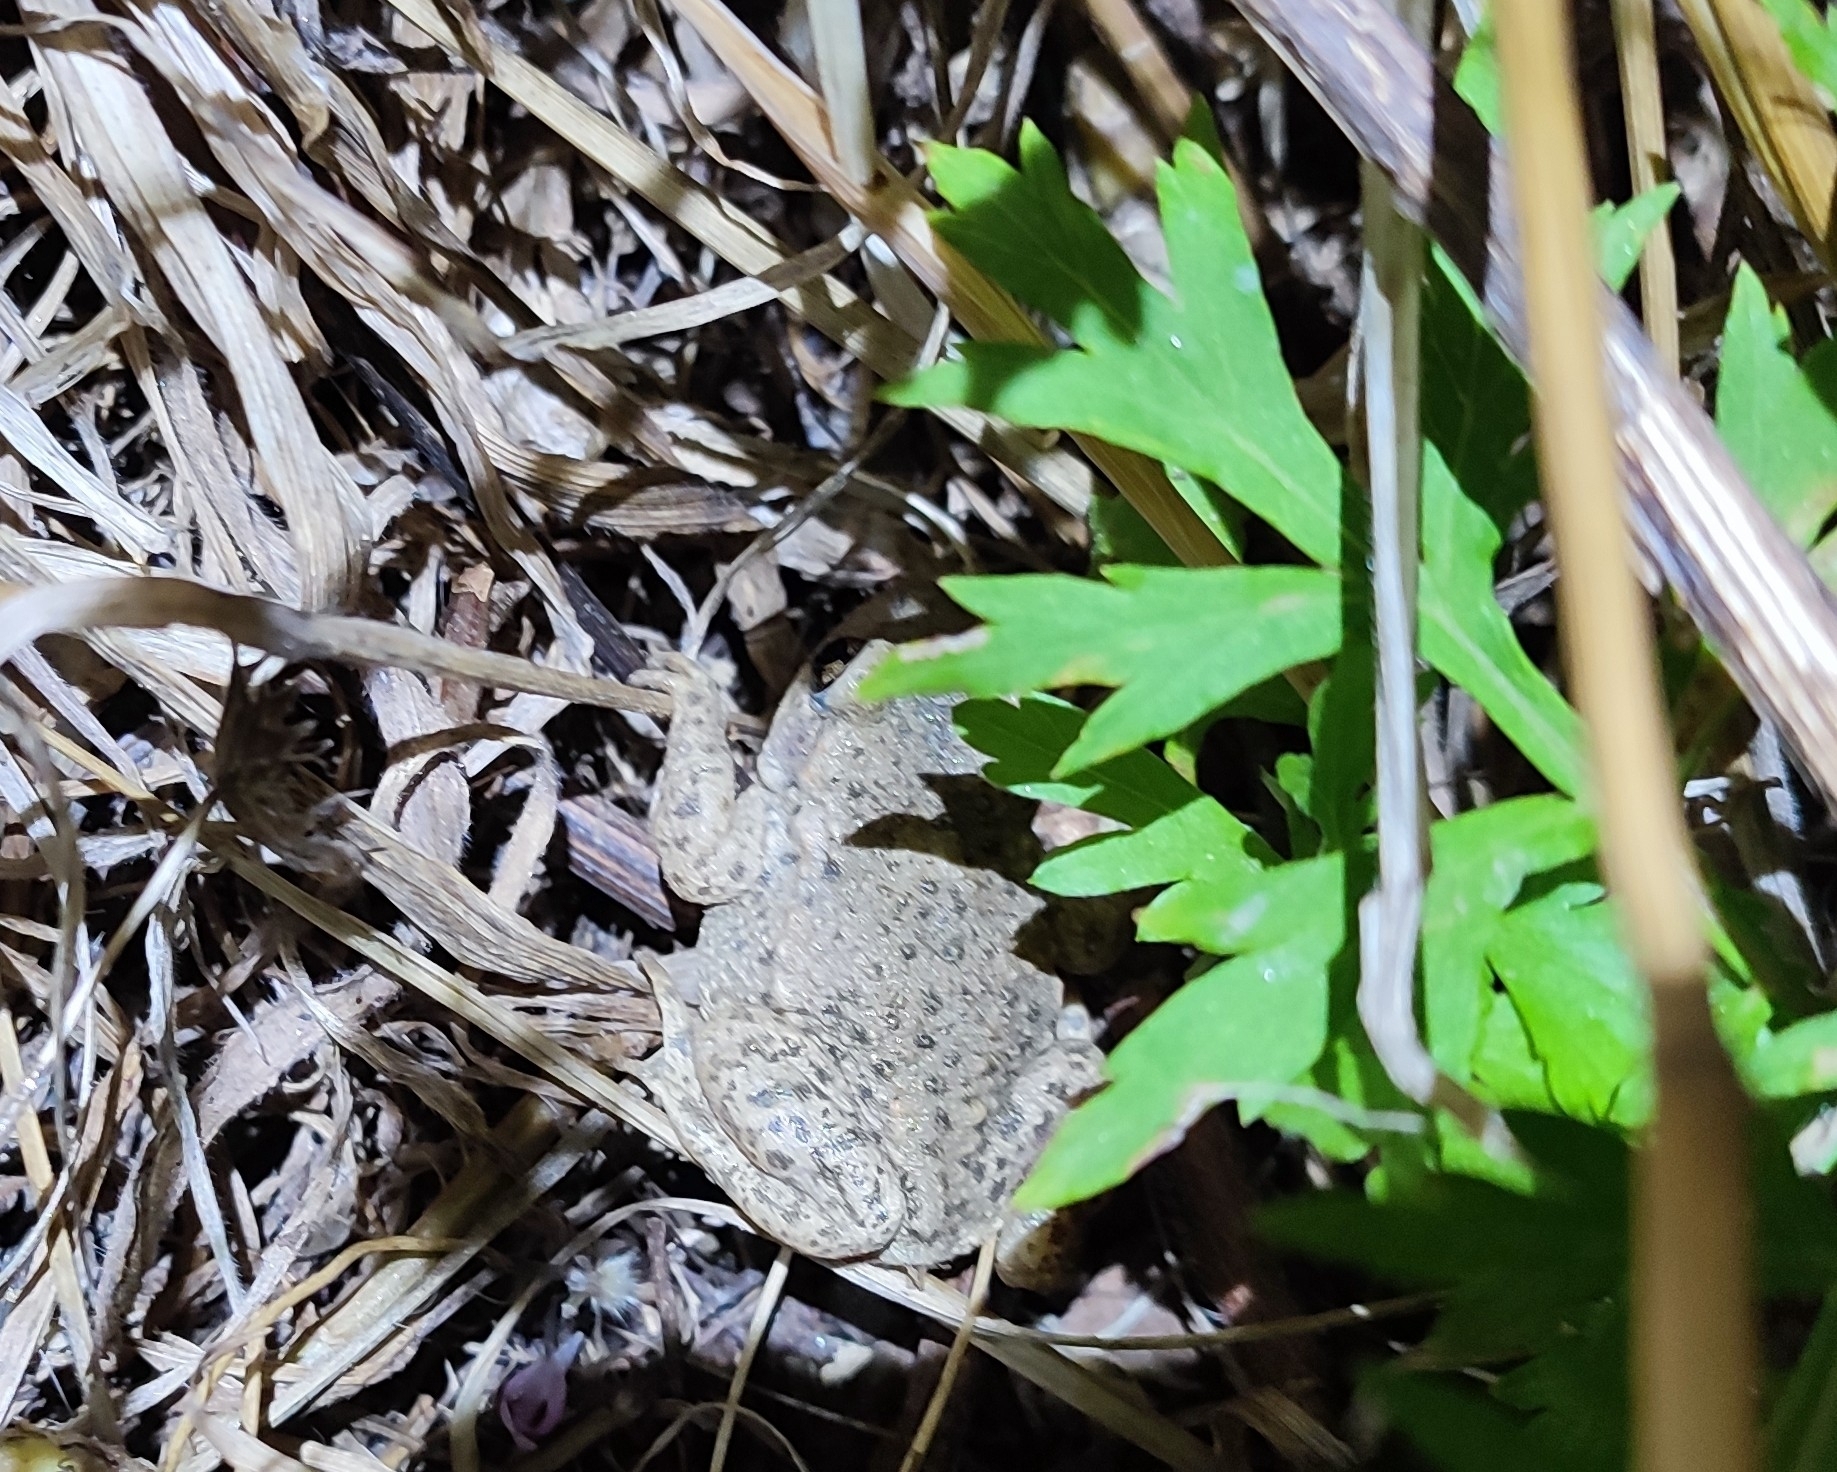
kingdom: Animalia
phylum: Chordata
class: Amphibia
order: Anura
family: Alytidae
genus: Alytes
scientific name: Alytes obstetricans
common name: Midwife toad
